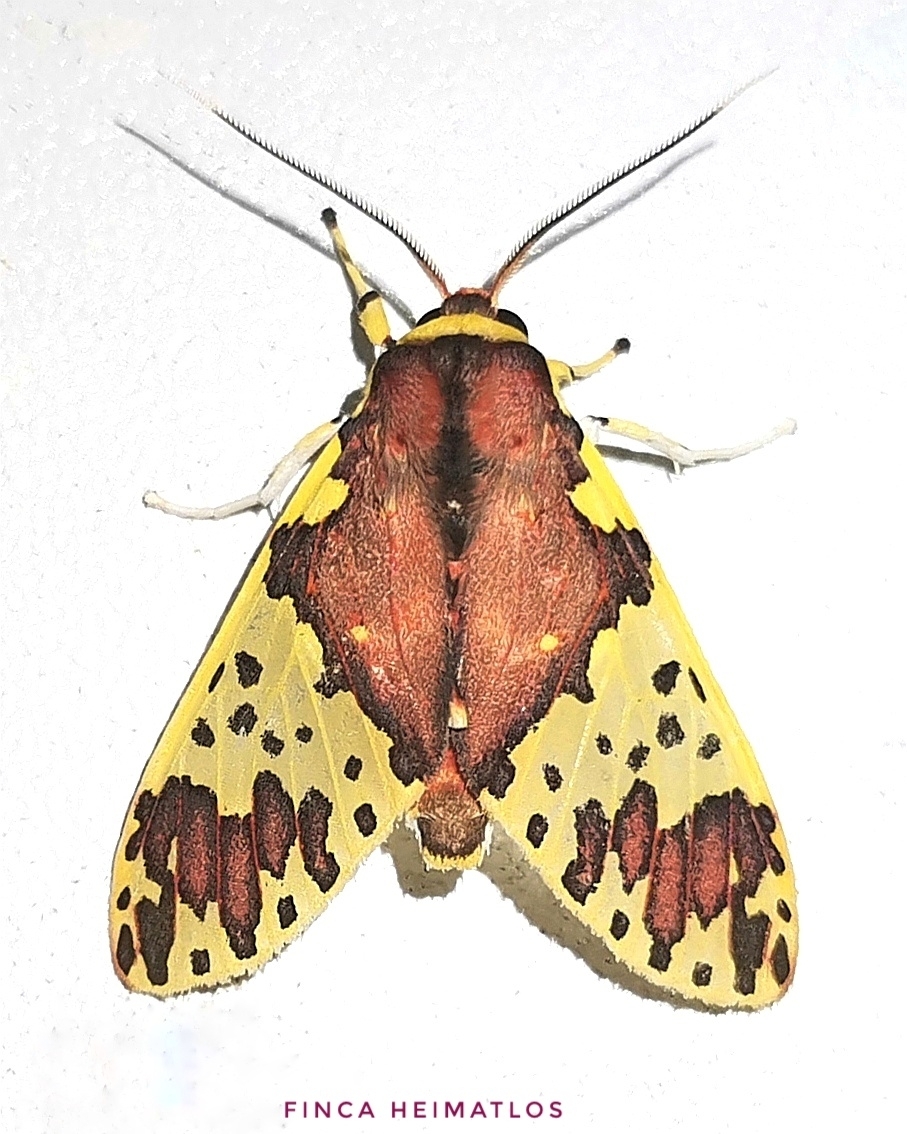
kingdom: Animalia
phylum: Arthropoda
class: Insecta
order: Lepidoptera
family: Erebidae
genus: Amaxia
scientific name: Amaxia carinosa
